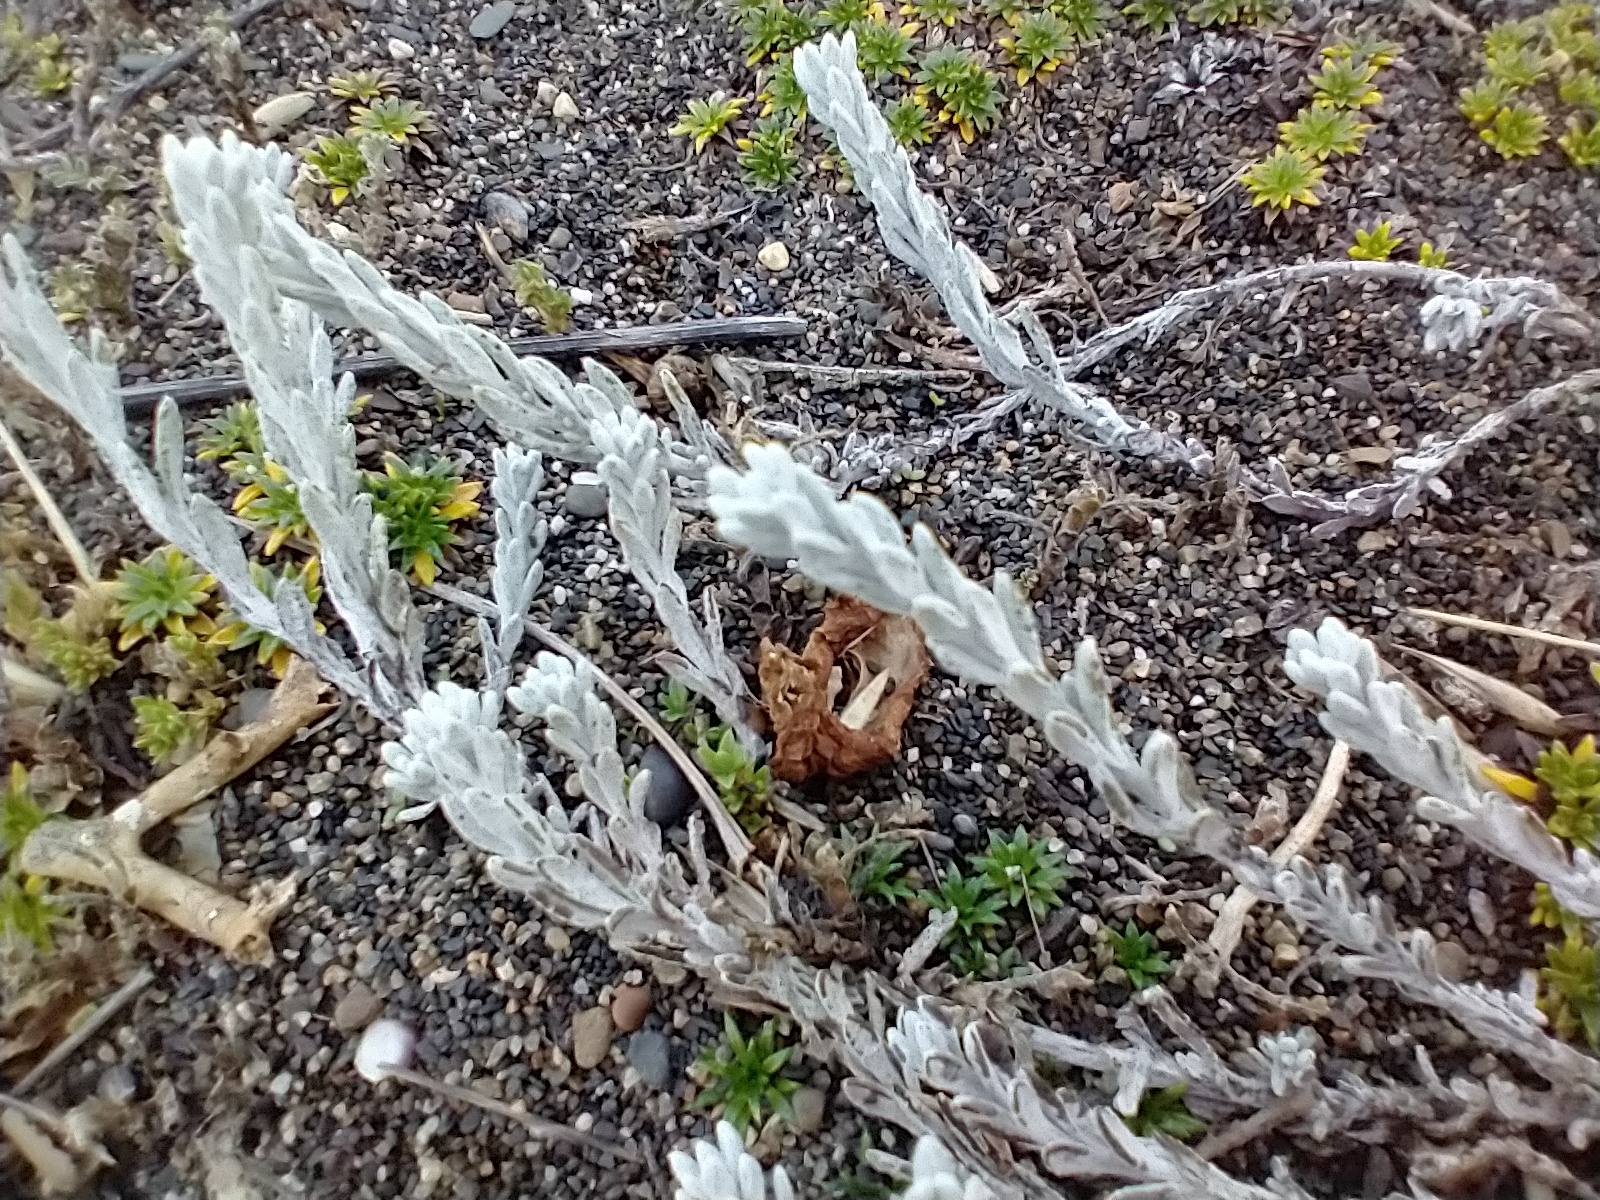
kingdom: Plantae
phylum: Tracheophyta
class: Magnoliopsida
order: Asterales
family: Asteraceae
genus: Senecio
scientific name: Senecio patagonicus
